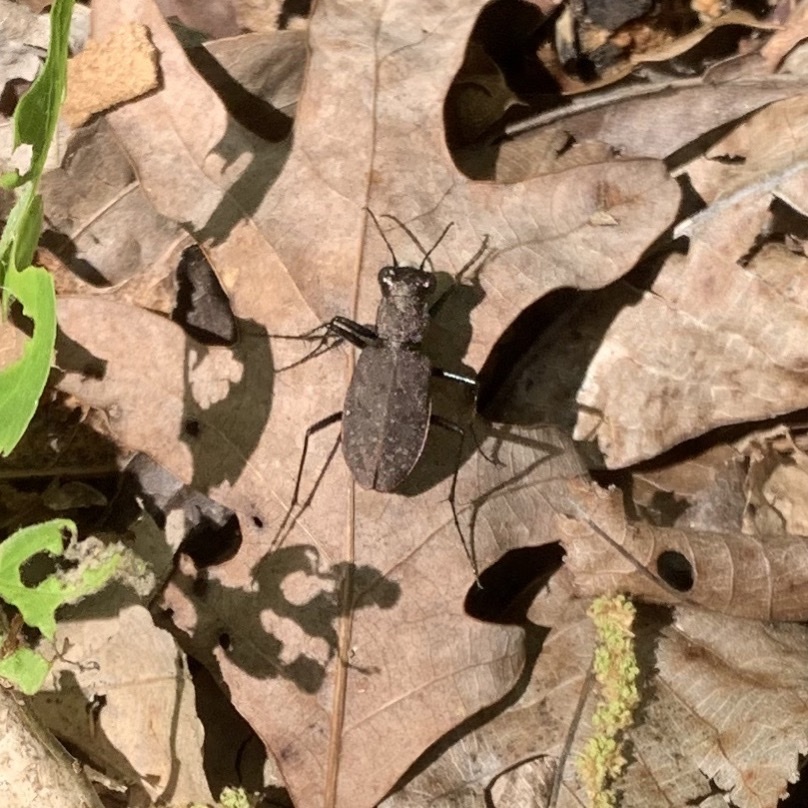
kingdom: Animalia
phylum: Arthropoda
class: Insecta
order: Coleoptera
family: Carabidae
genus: Cylindera
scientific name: Cylindera unipunctata
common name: One-spotted tiger beetle
